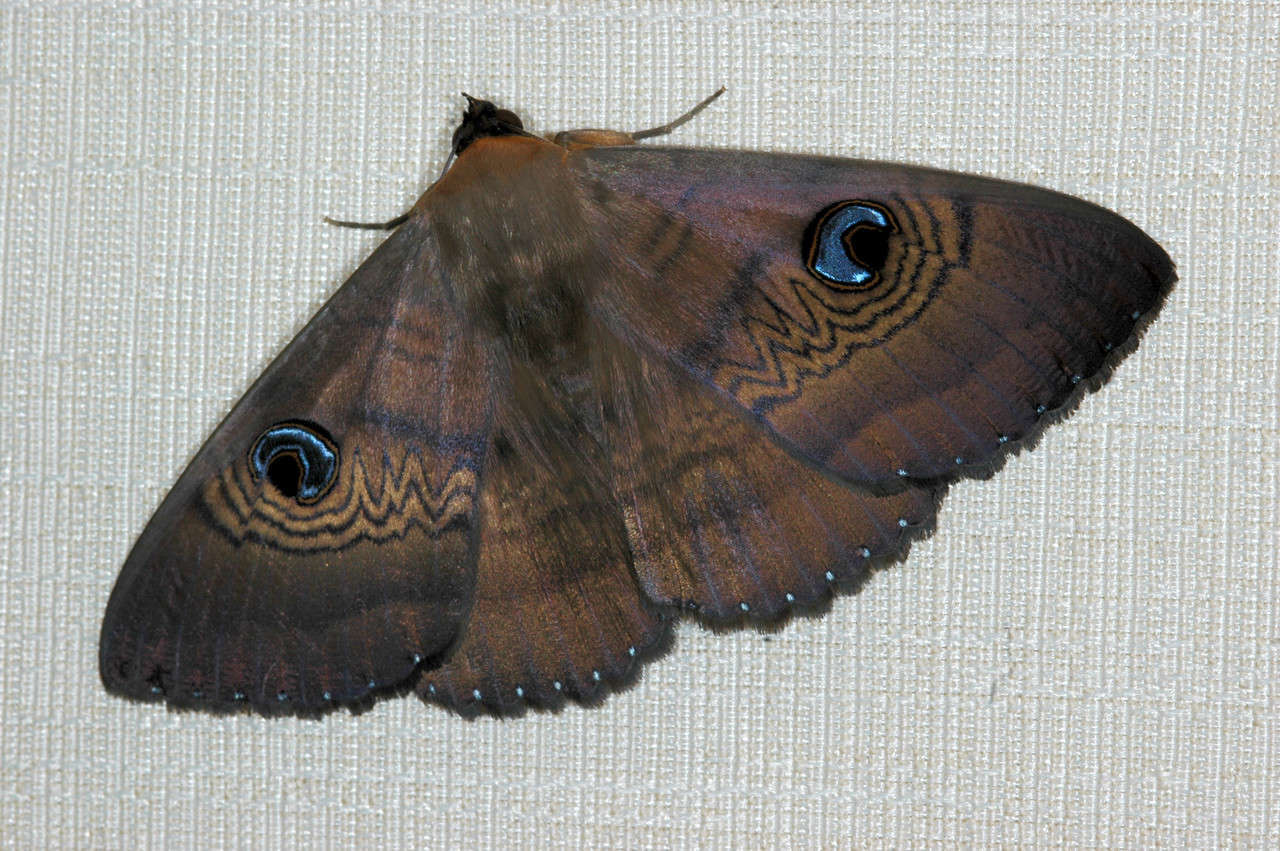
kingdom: Animalia
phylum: Arthropoda
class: Insecta
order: Lepidoptera
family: Erebidae
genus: Dasypodia
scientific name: Dasypodia selenophora
